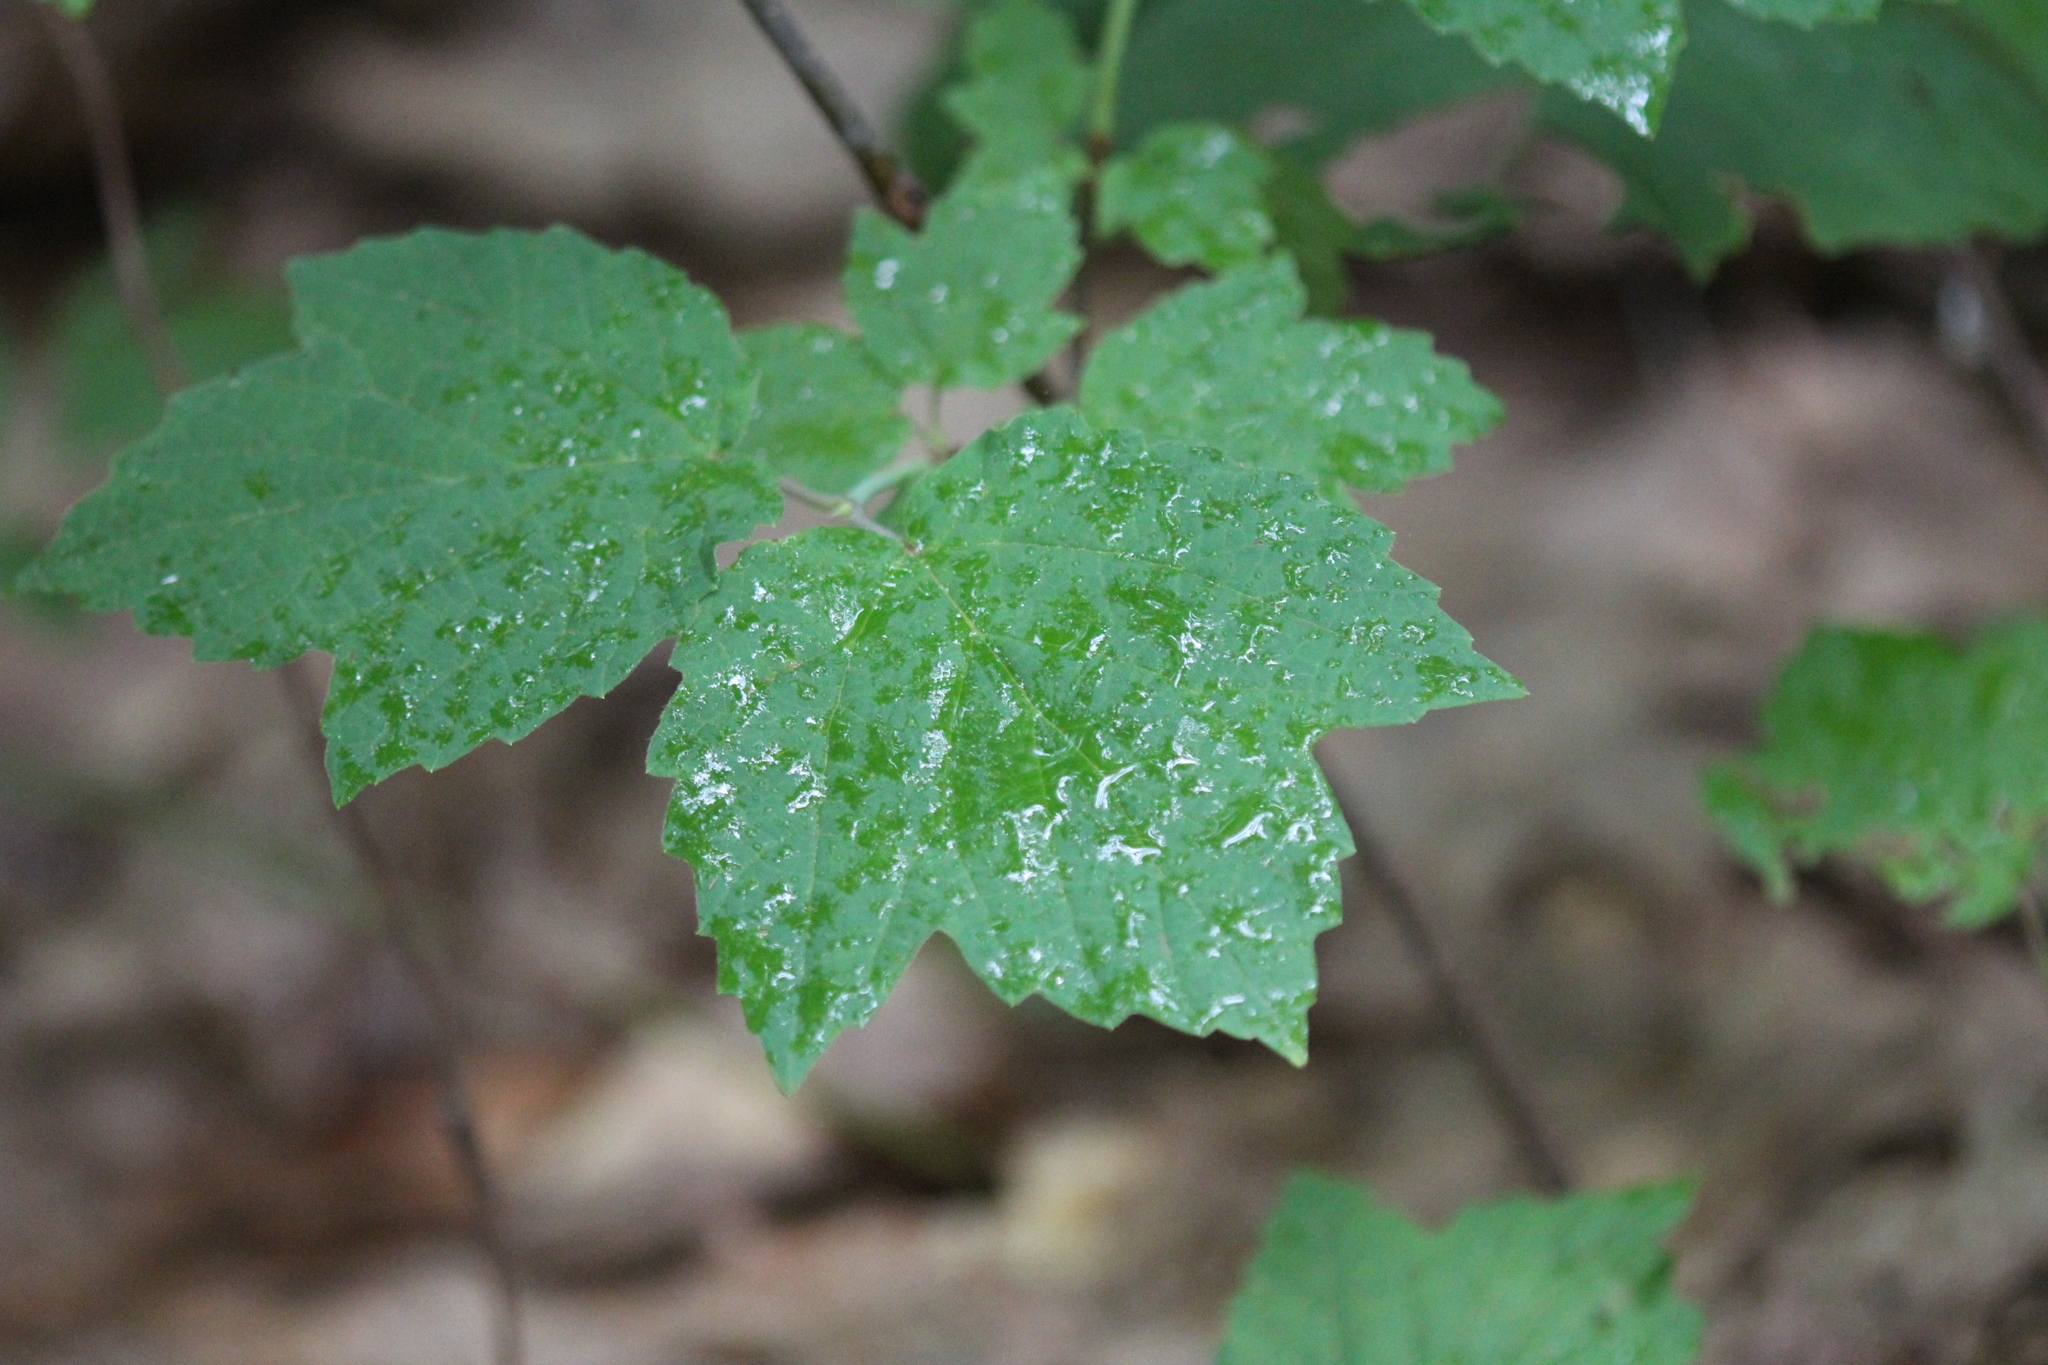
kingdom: Plantae
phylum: Tracheophyta
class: Magnoliopsida
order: Dipsacales
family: Viburnaceae
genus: Viburnum
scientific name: Viburnum acerifolium
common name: Dockmackie
